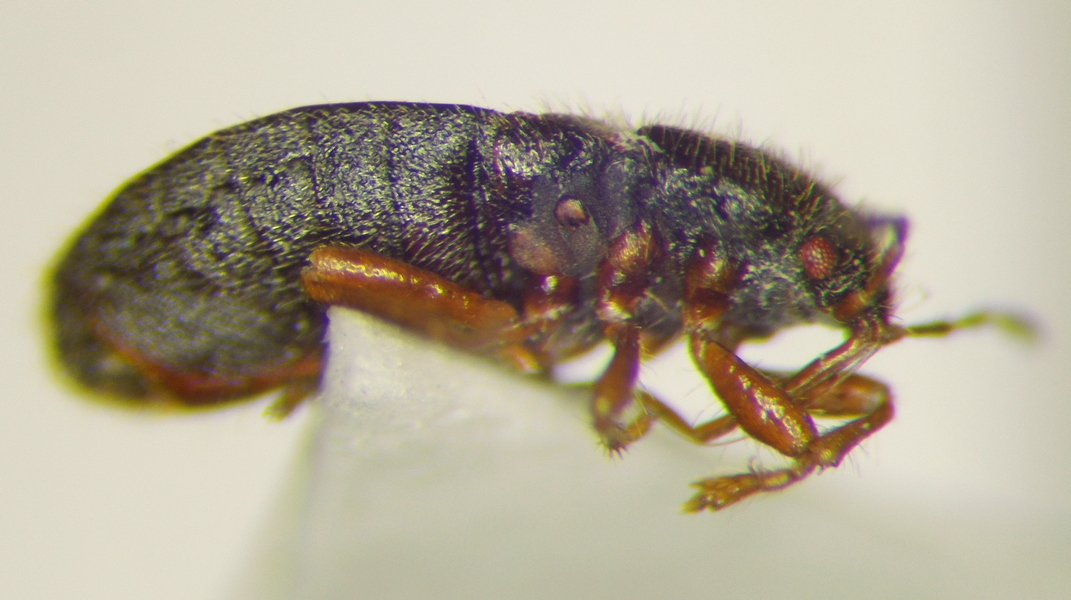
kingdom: Animalia
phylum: Arthropoda
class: Insecta
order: Hemiptera
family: Blissidae
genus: Dimorphopterus
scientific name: Dimorphopterus doriae
